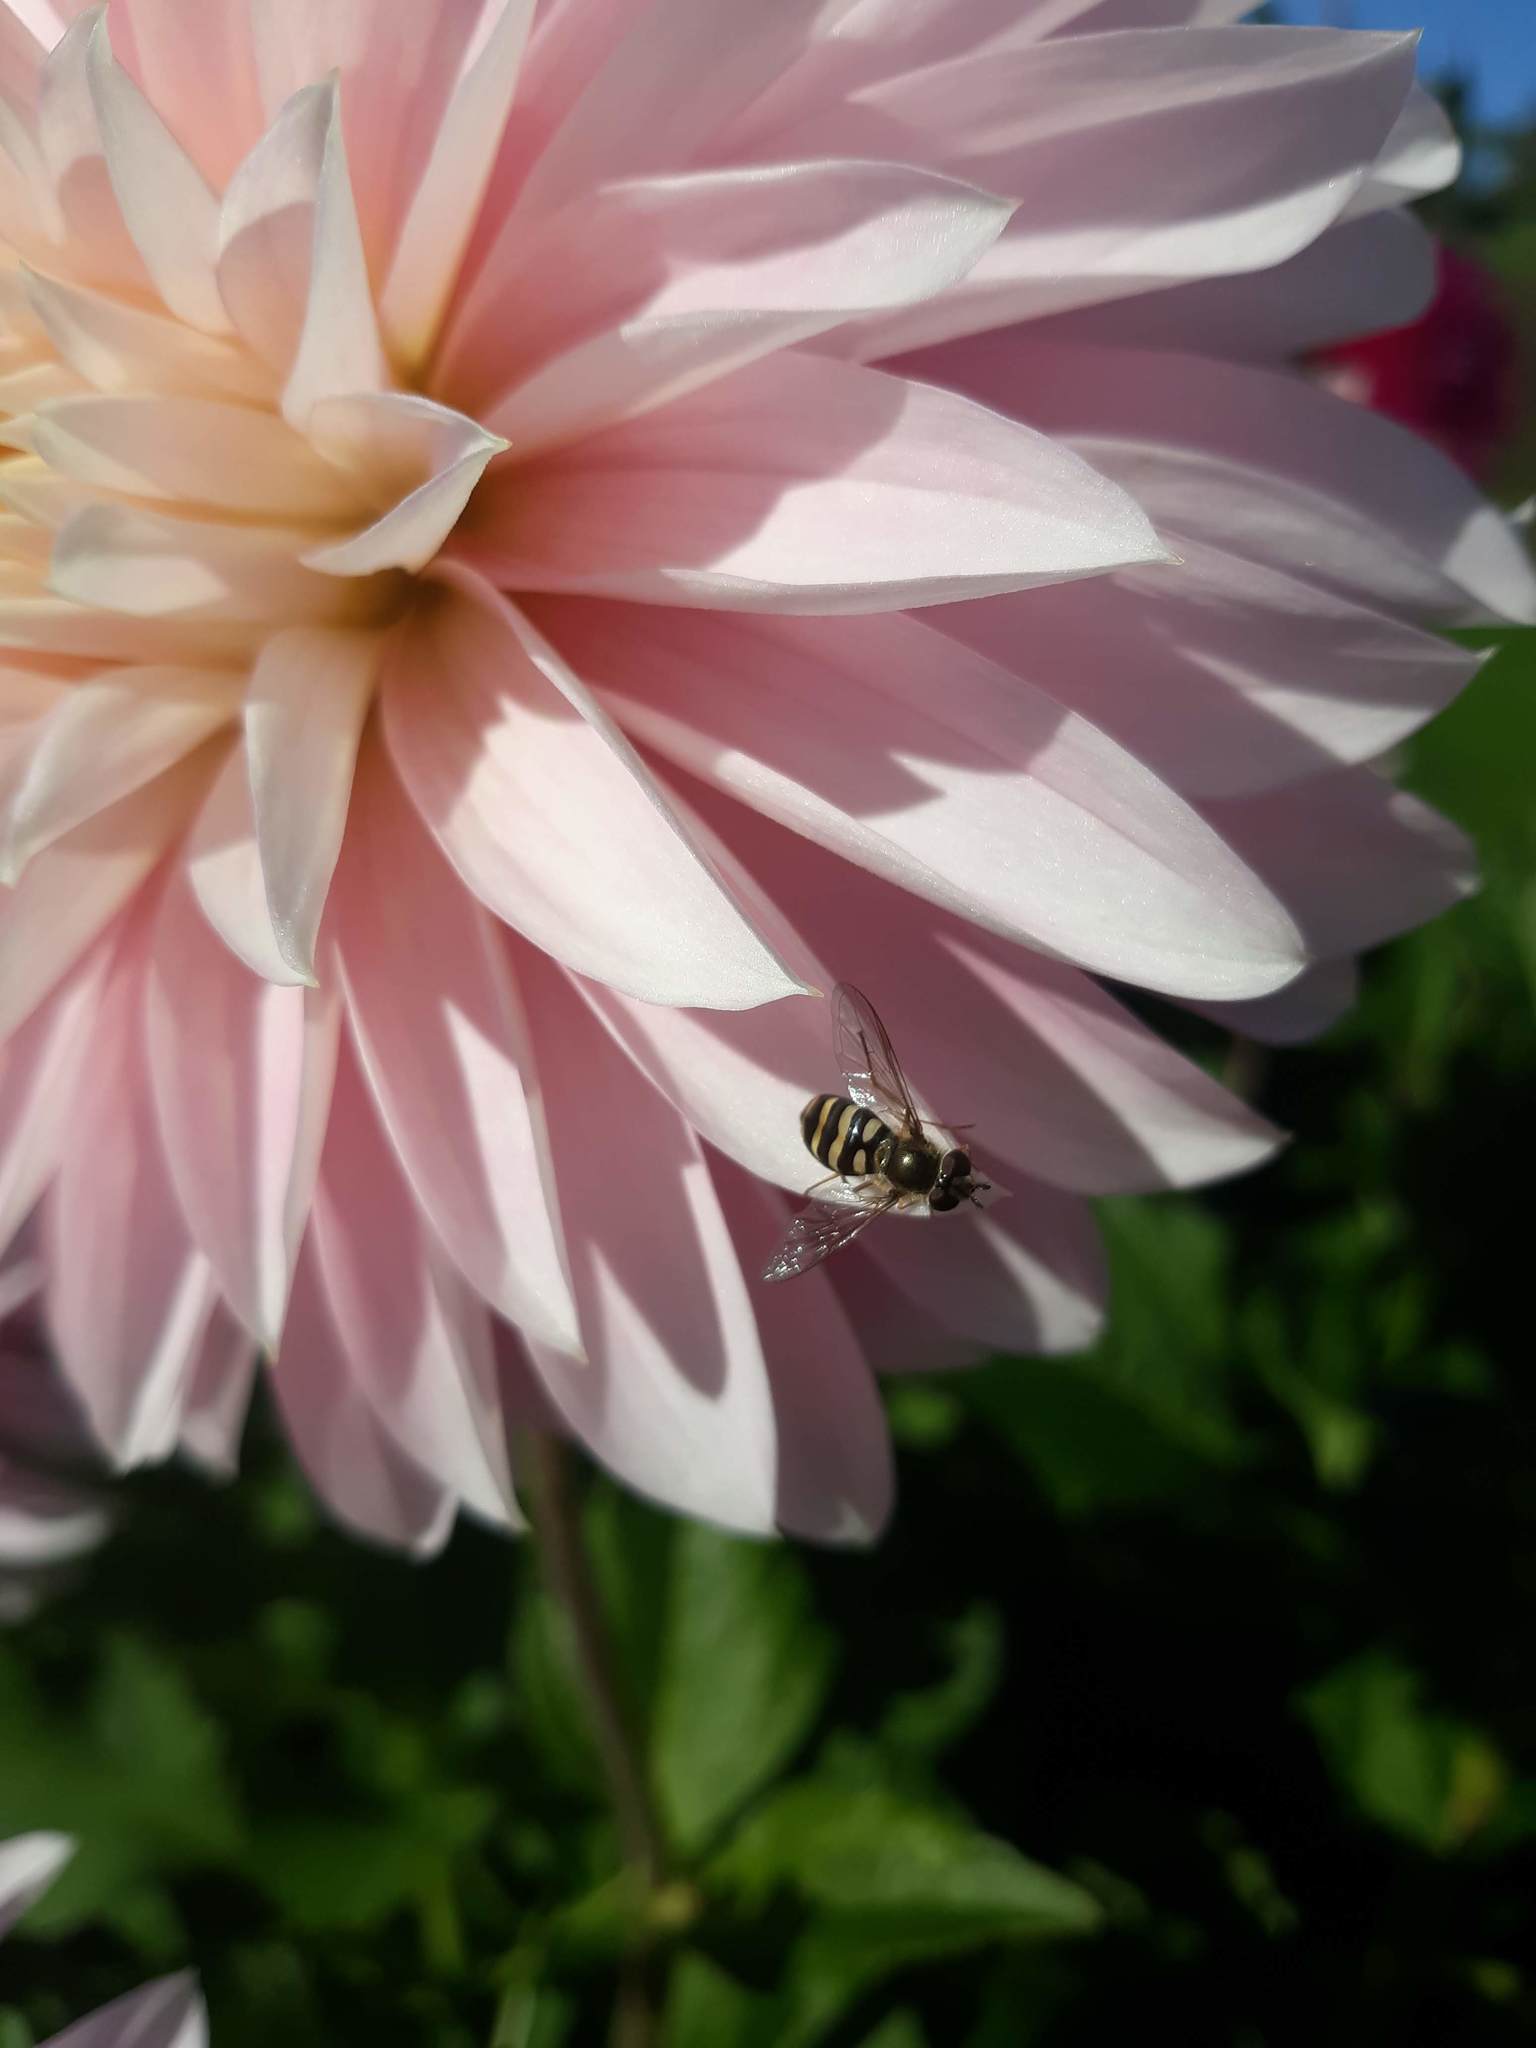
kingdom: Animalia
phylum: Arthropoda
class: Insecta
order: Diptera
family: Syrphidae
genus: Eupeodes
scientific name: Eupeodes fumipennis
